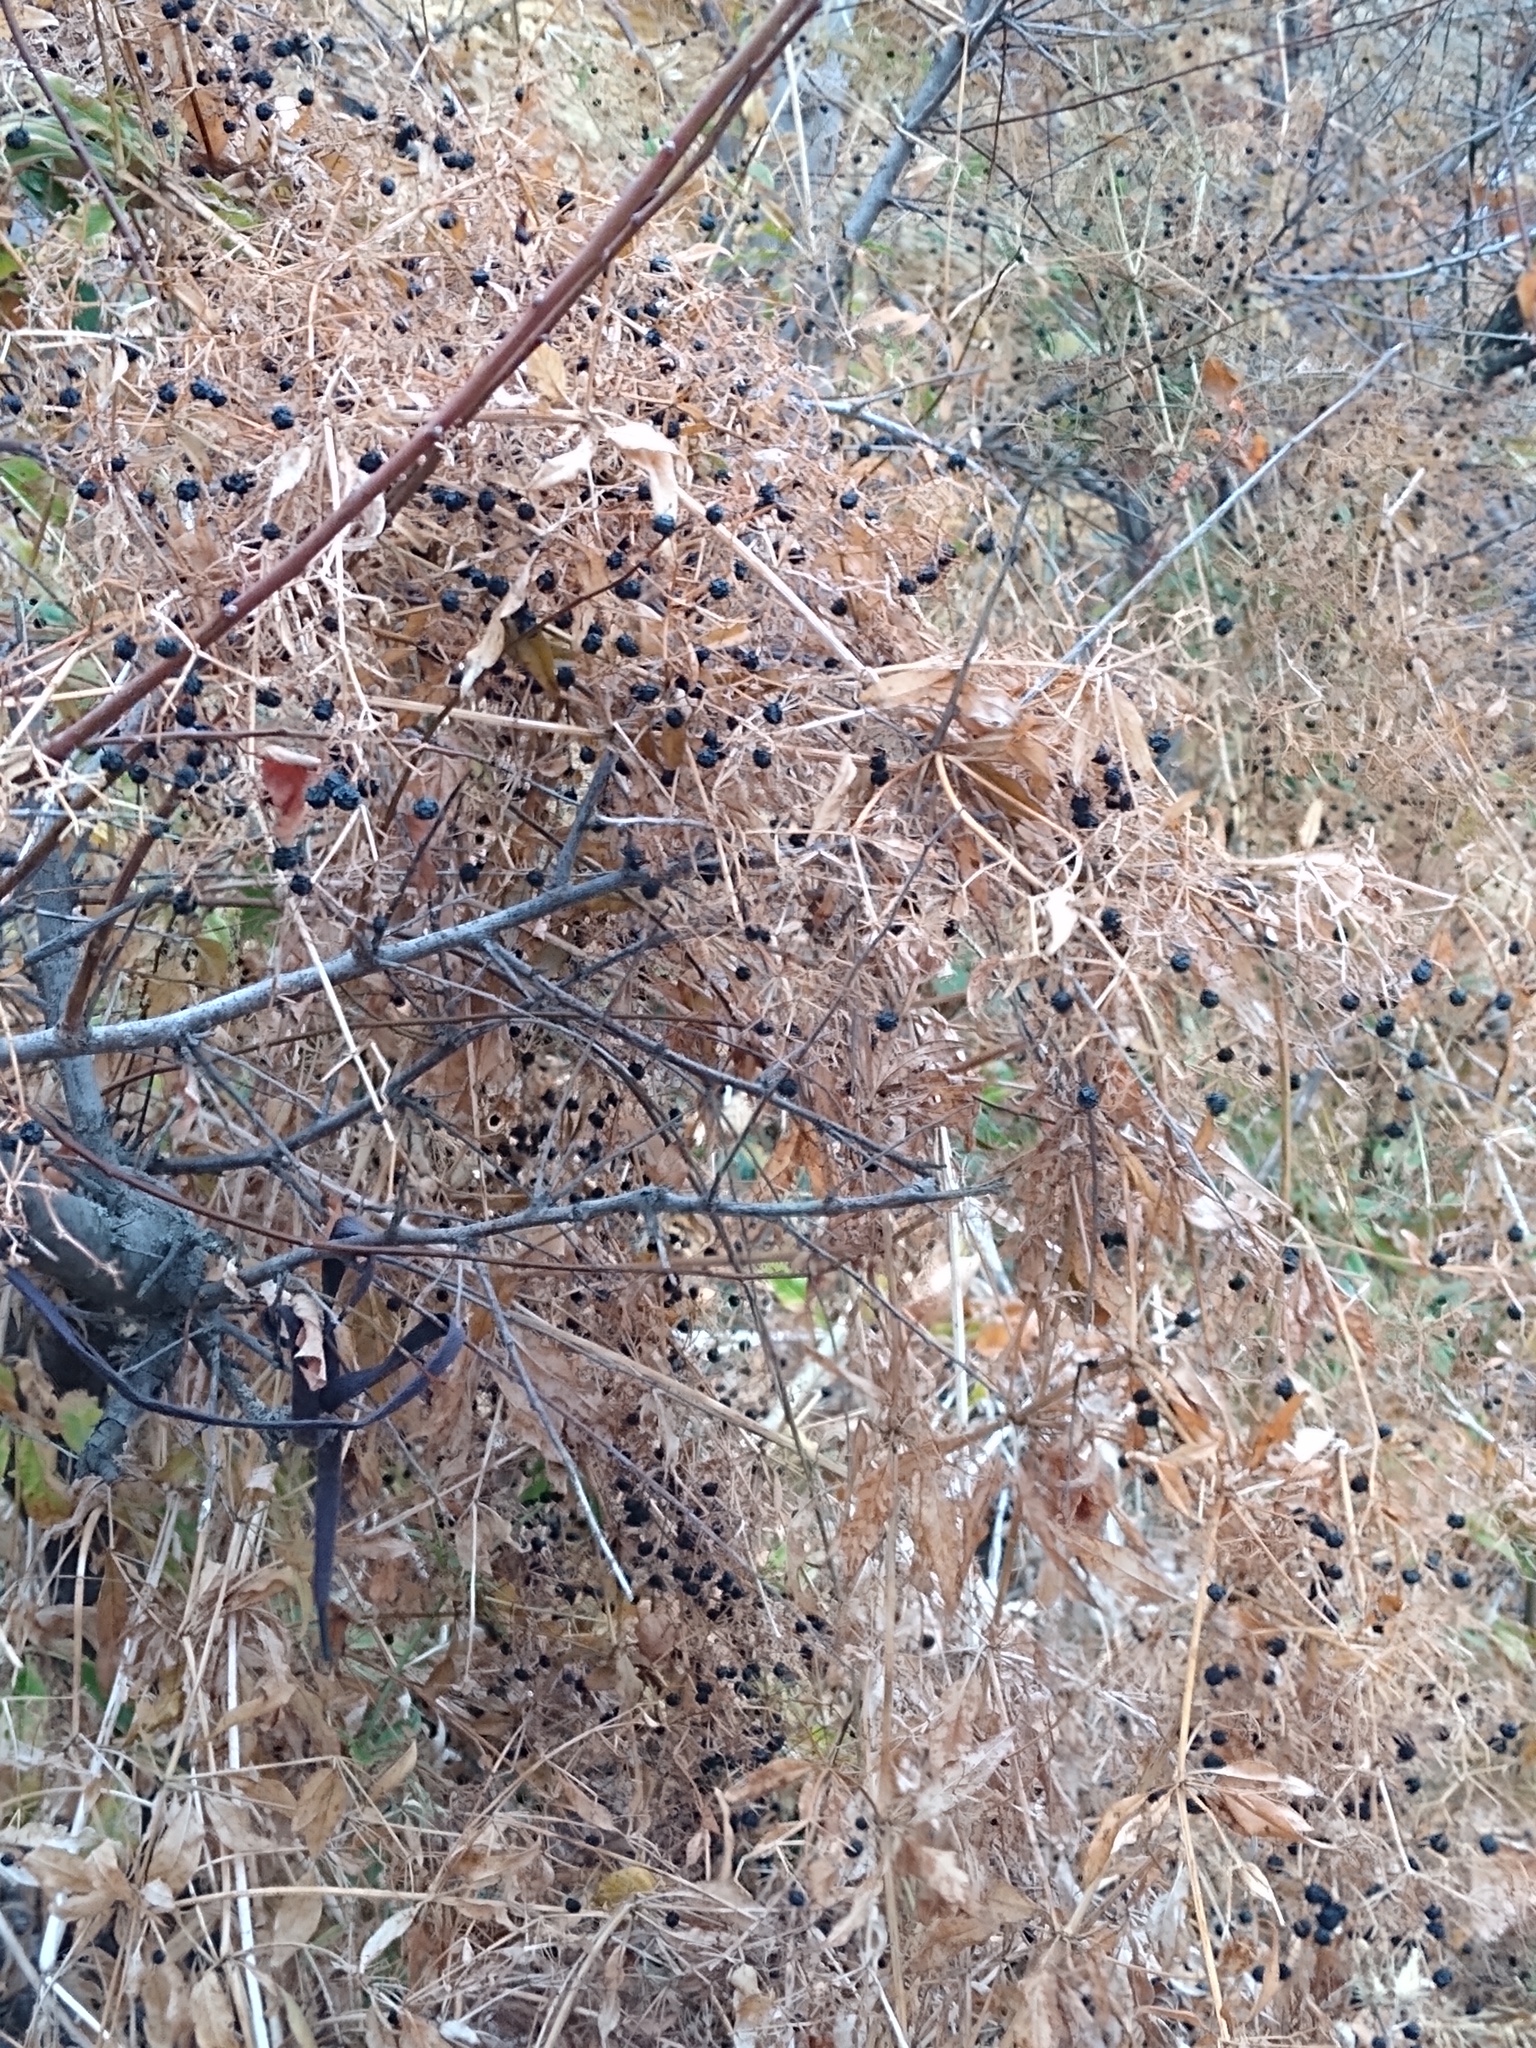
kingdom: Plantae
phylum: Tracheophyta
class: Magnoliopsida
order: Gentianales
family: Rubiaceae
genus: Rubia
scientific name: Rubia tinctorum
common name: Dyer's madder
